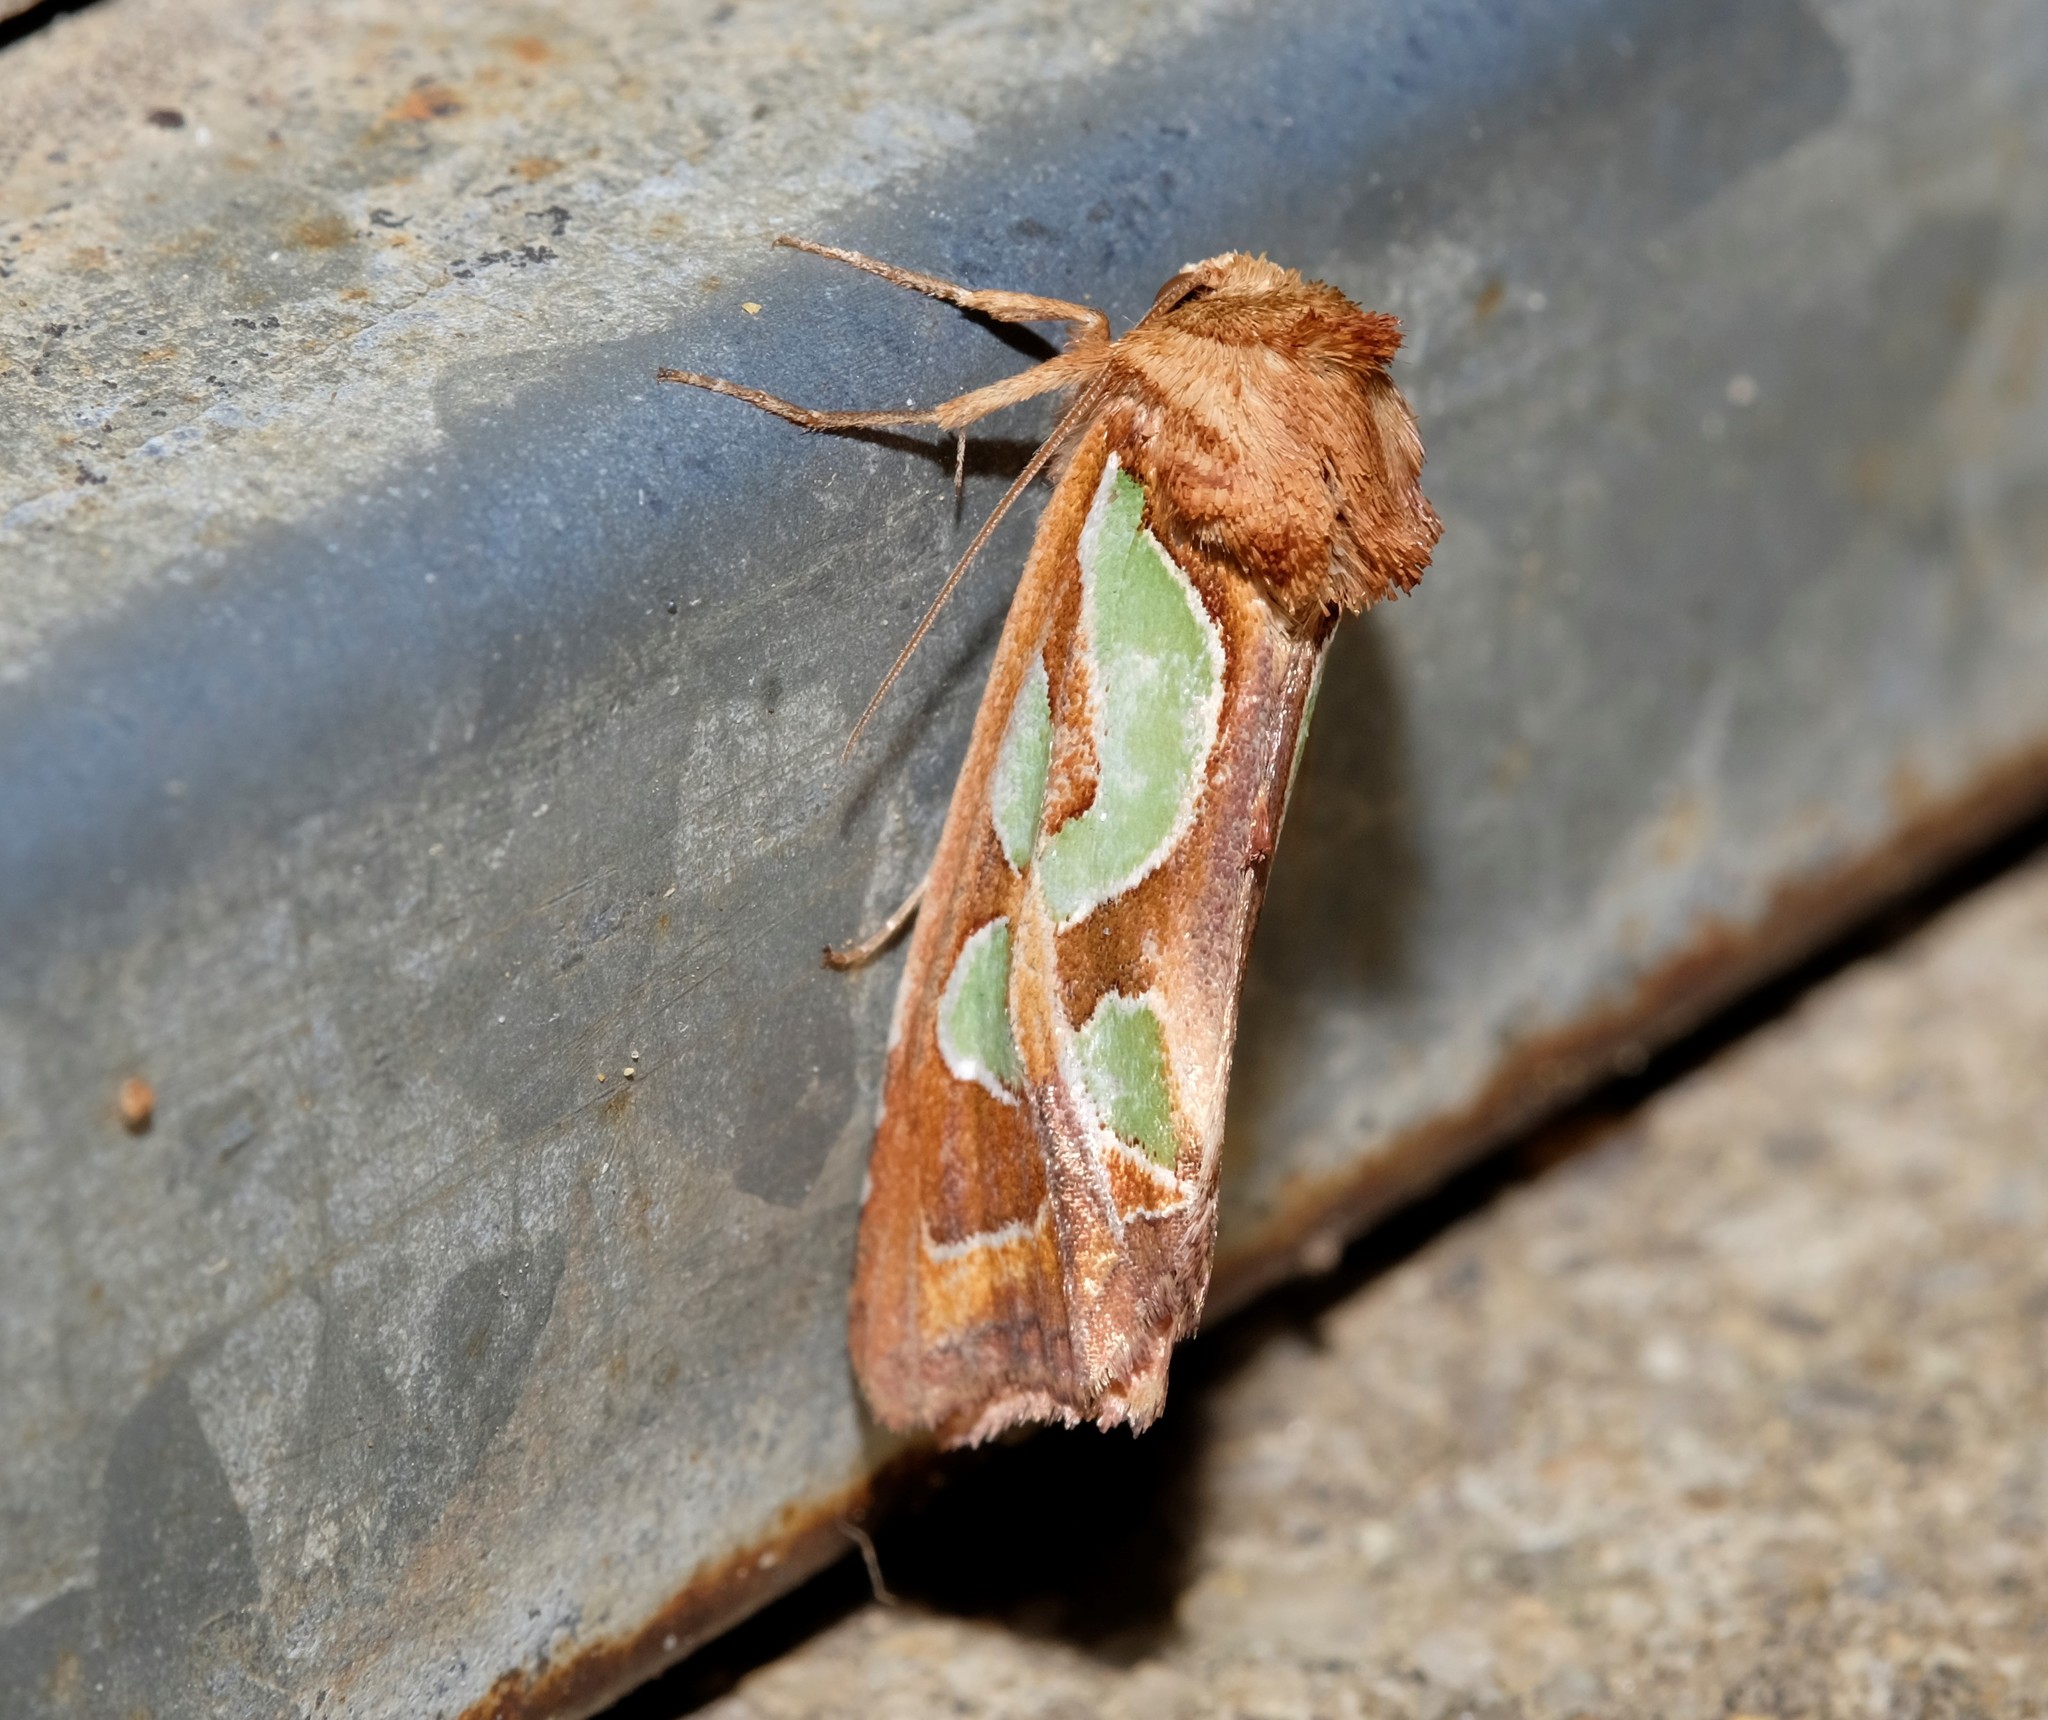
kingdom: Animalia
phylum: Arthropoda
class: Insecta
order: Lepidoptera
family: Noctuidae
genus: Cosmodes
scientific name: Cosmodes elegans
